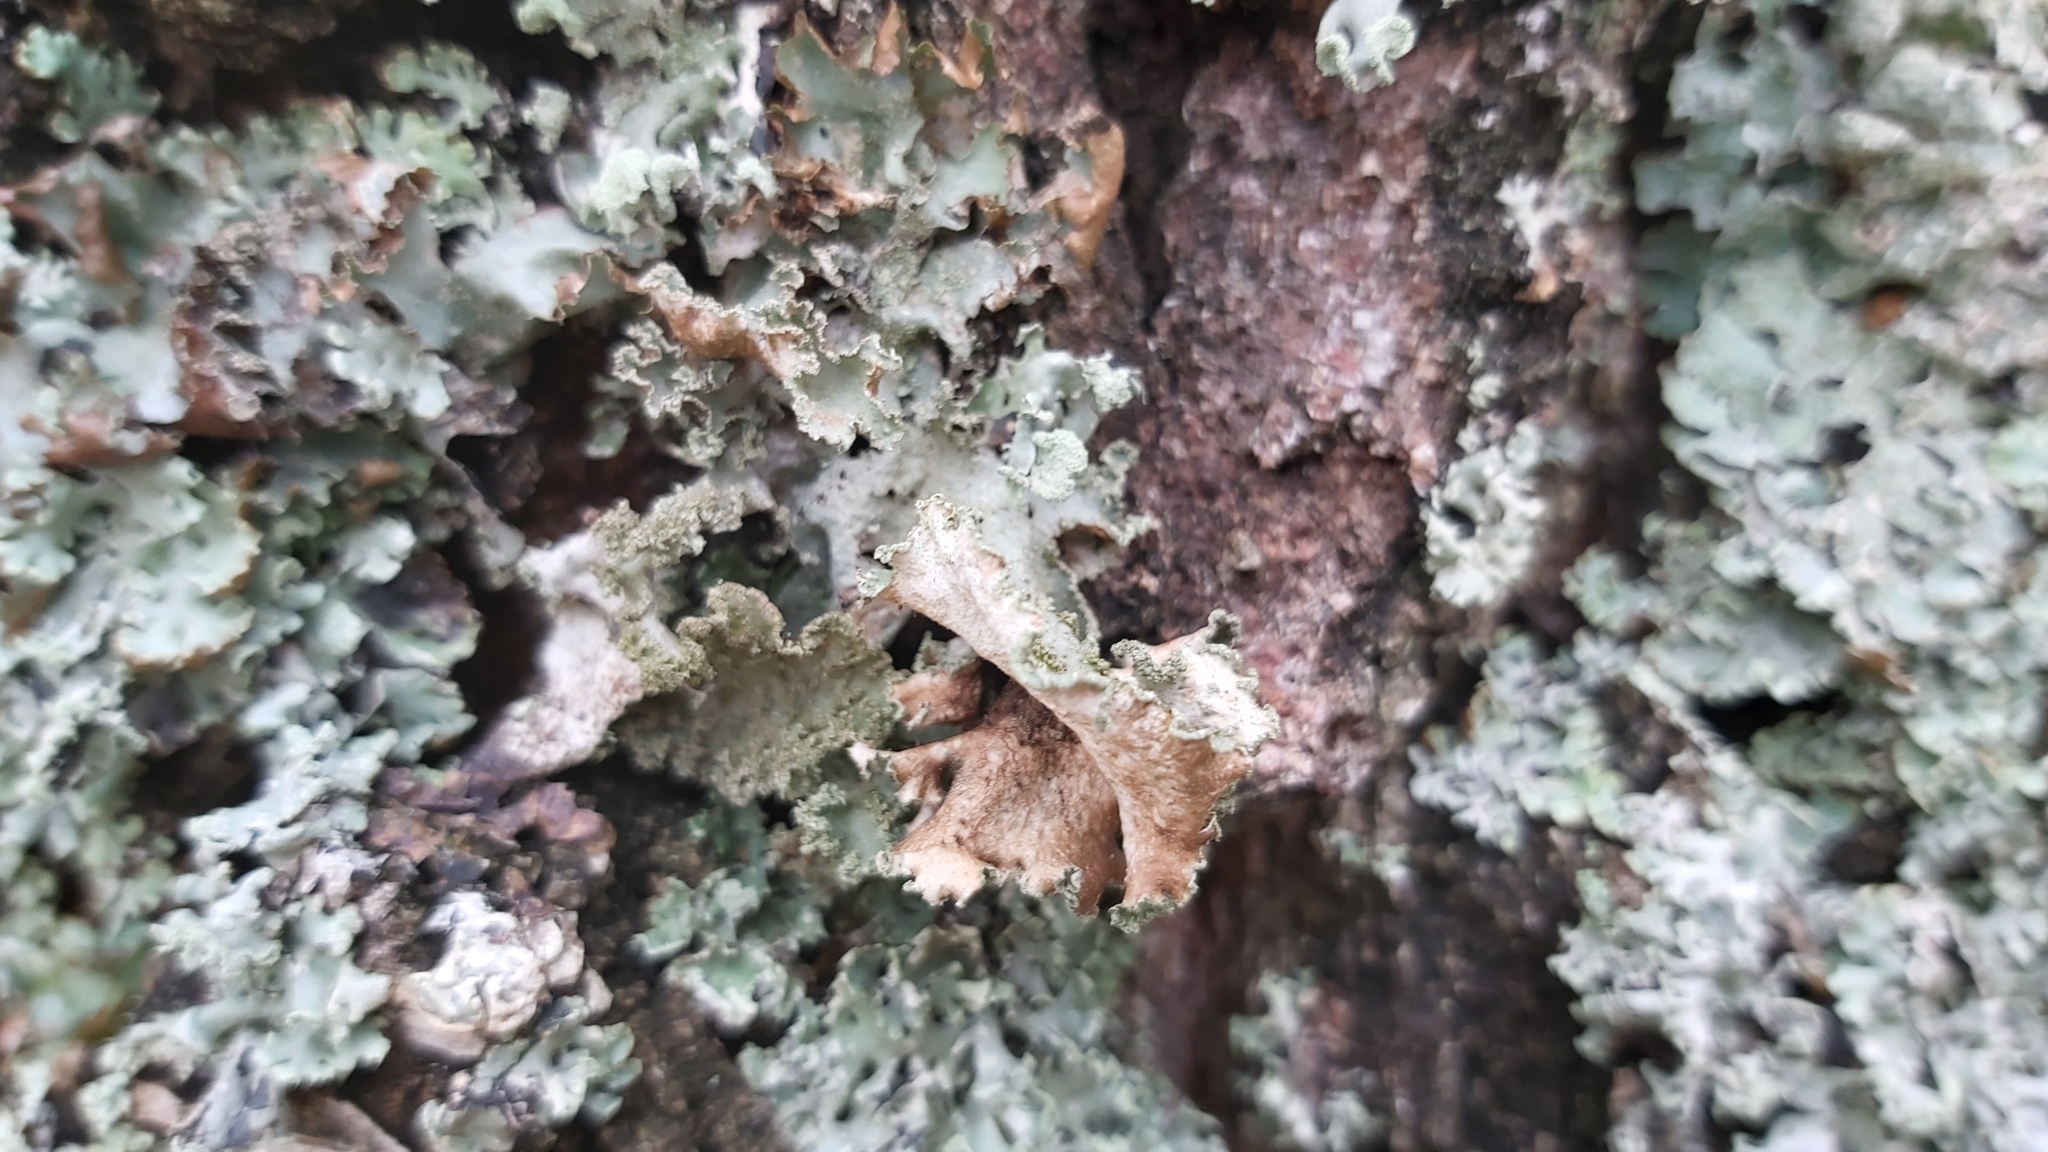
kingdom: Fungi
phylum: Ascomycota
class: Lecanoromycetes
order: Lecanorales
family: Parmeliaceae
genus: Platismatia
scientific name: Platismatia glauca
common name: Varied rag lichen
